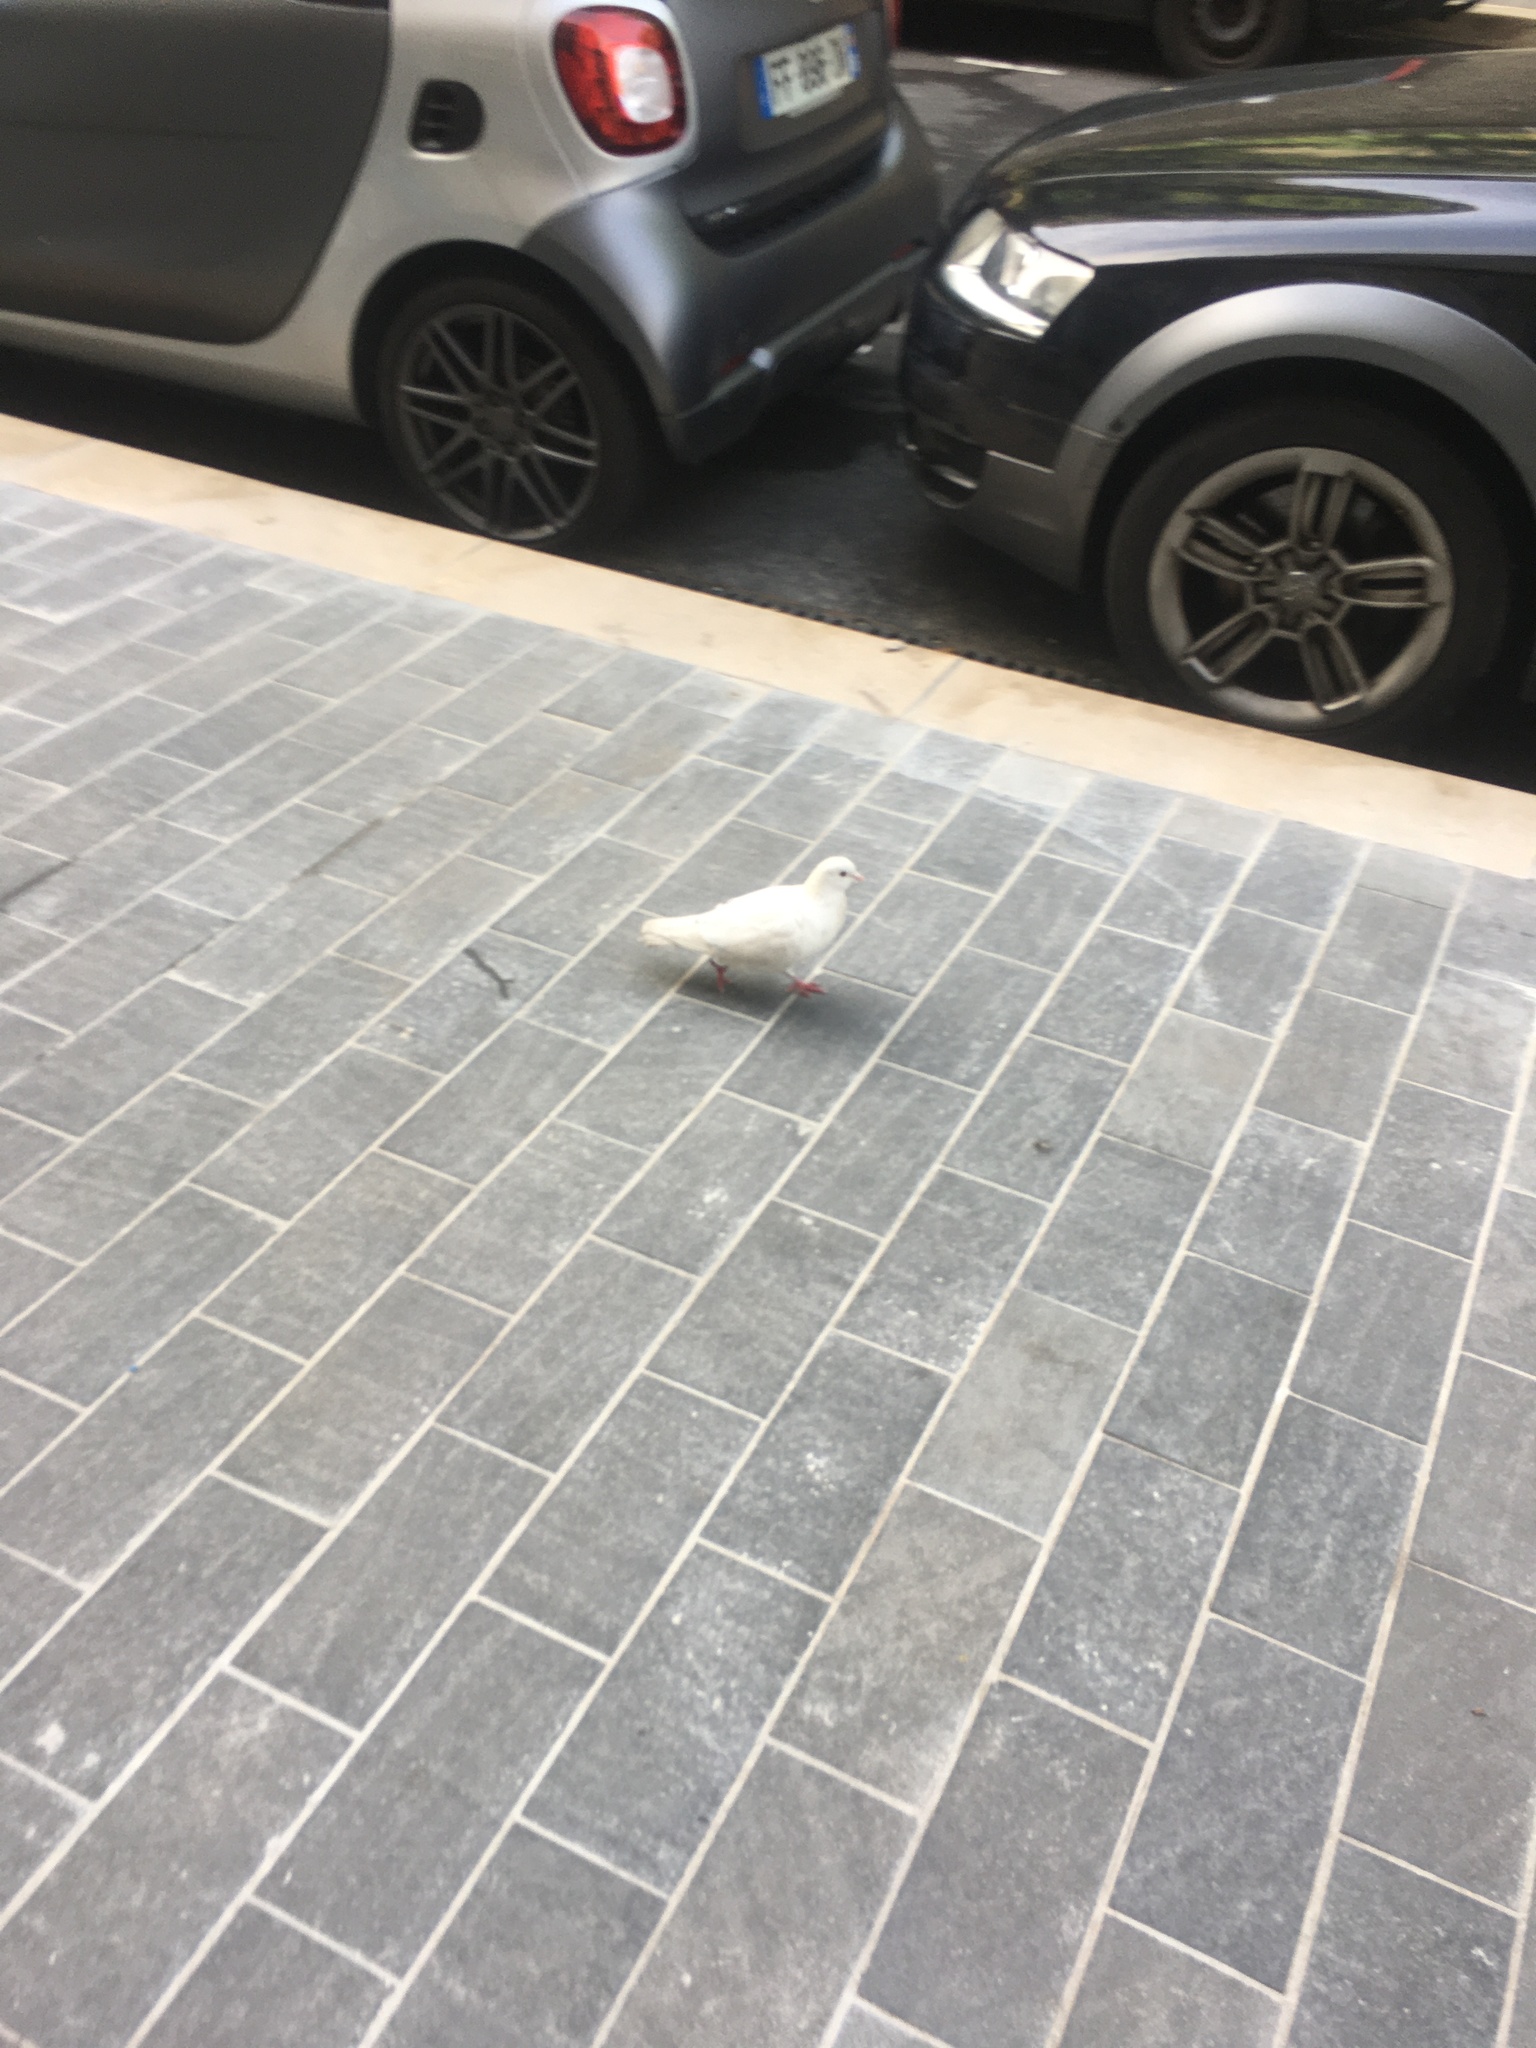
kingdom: Animalia
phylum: Chordata
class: Aves
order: Columbiformes
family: Columbidae
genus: Columba
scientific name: Columba livia
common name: Rock pigeon
